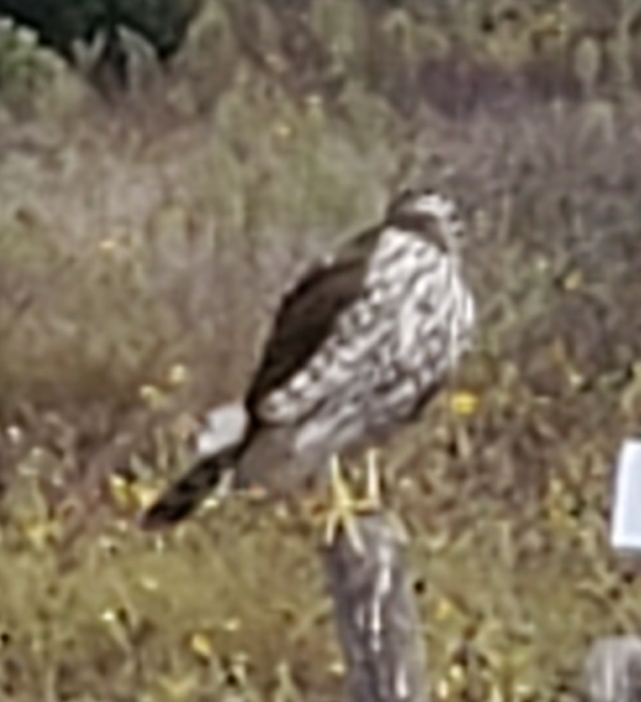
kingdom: Animalia
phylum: Chordata
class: Aves
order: Accipitriformes
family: Accipitridae
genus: Accipiter
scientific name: Accipiter cooperii
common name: Cooper's hawk
